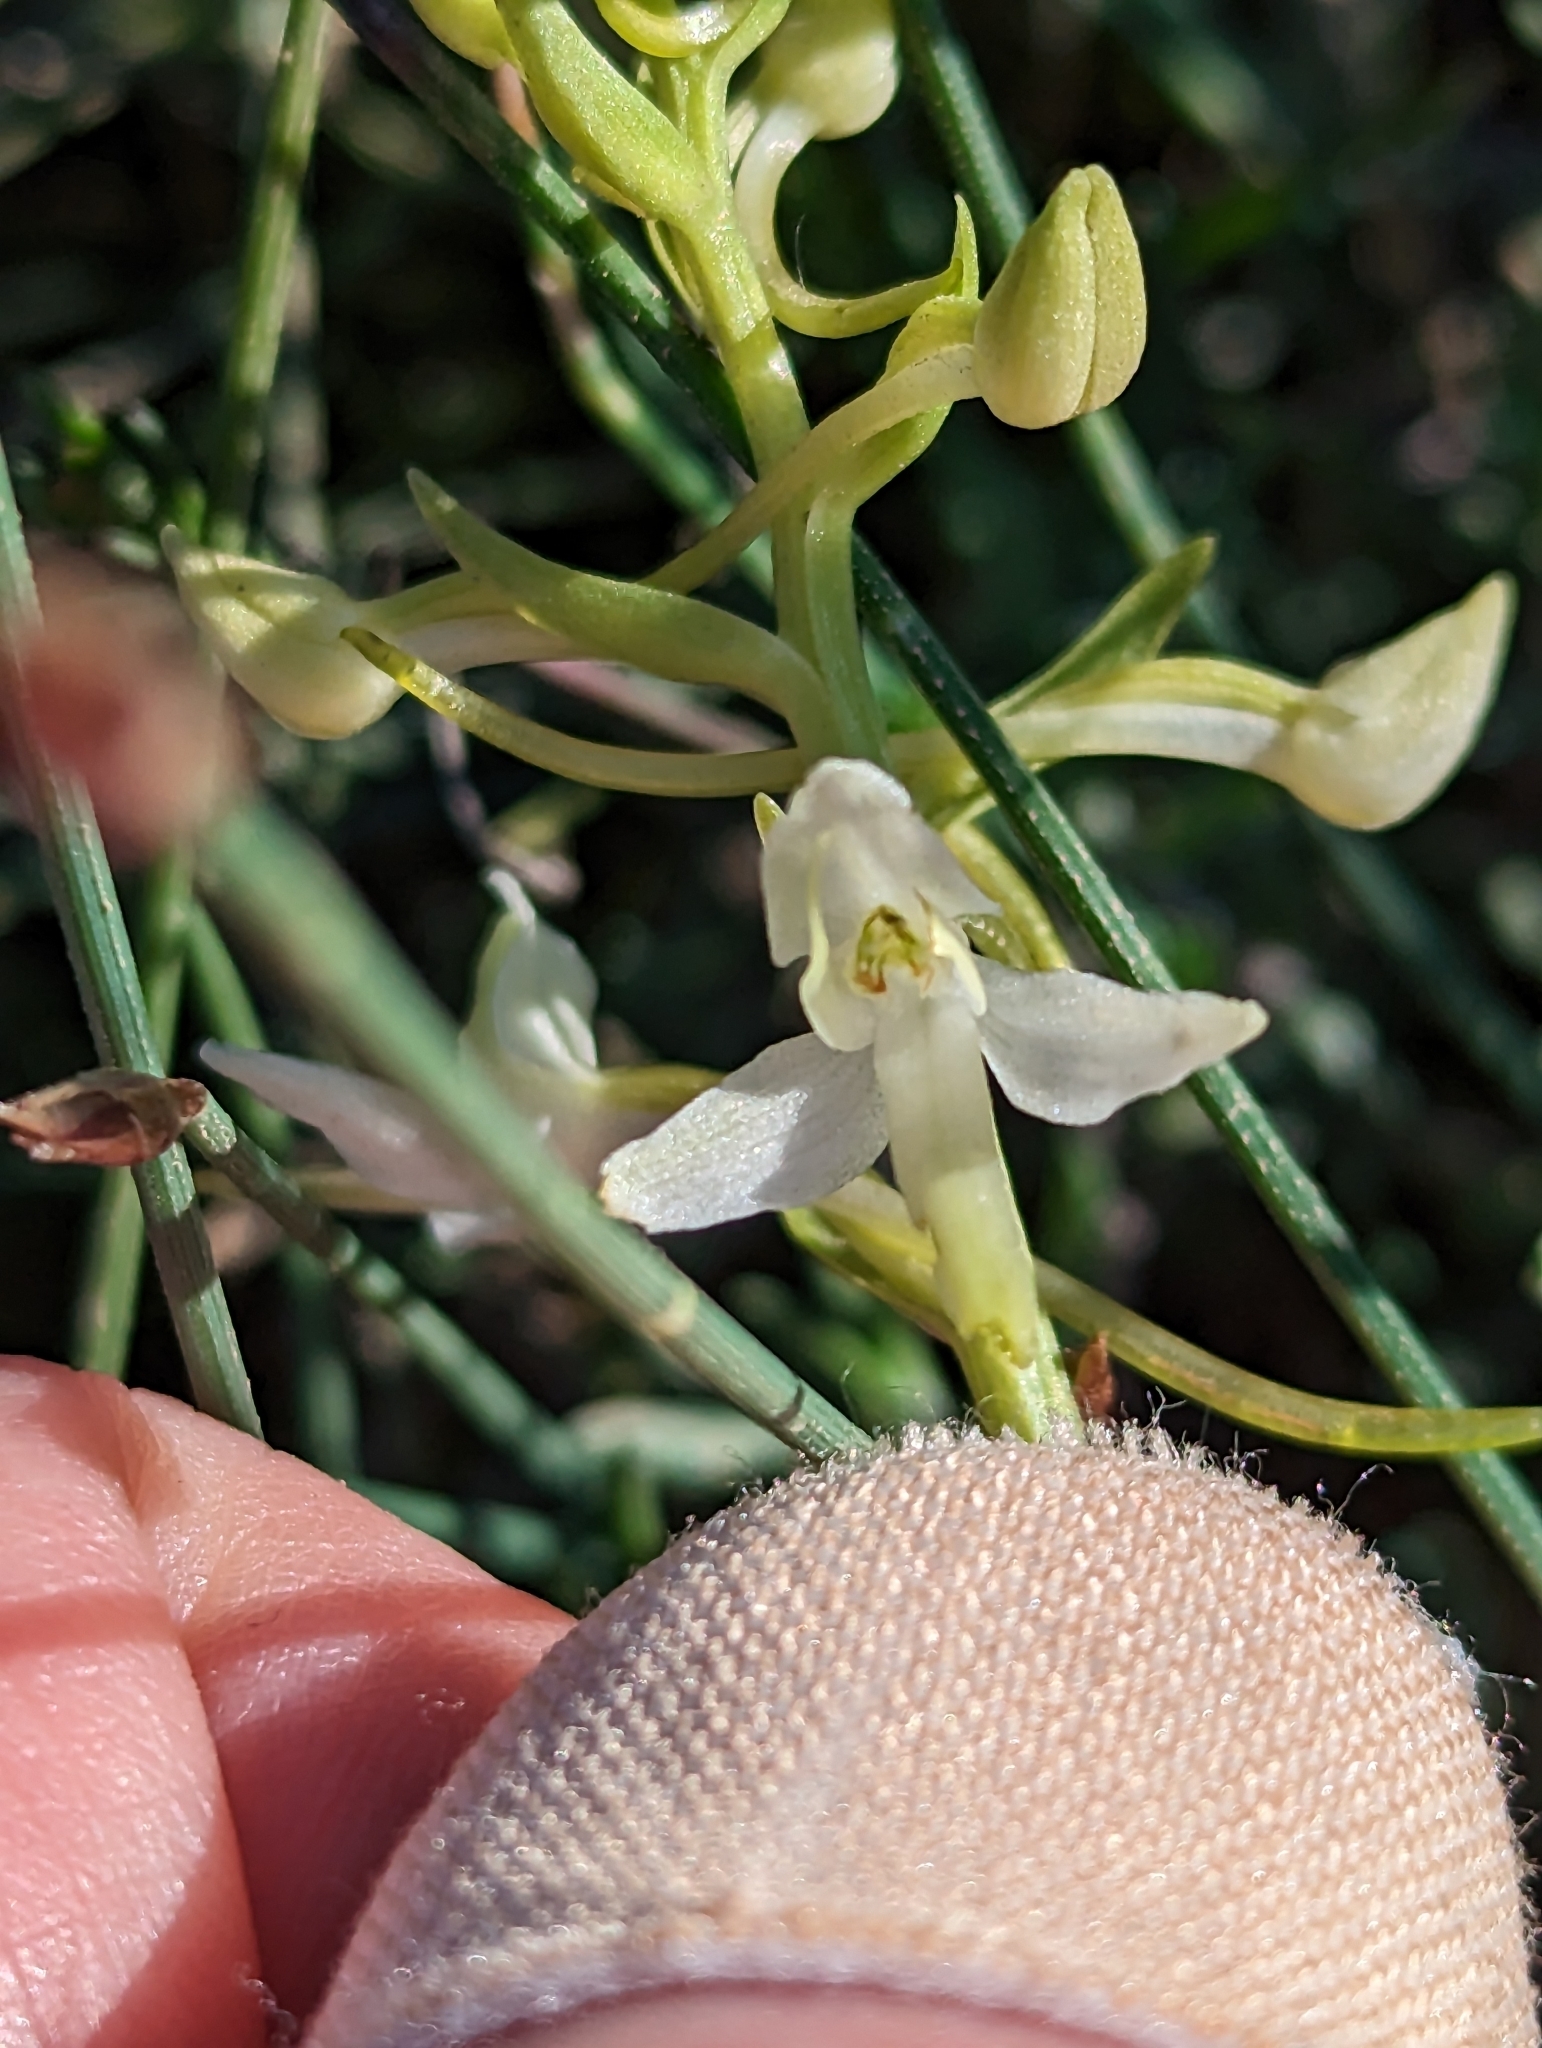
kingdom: Plantae
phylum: Tracheophyta
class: Liliopsida
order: Asparagales
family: Orchidaceae
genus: Platanthera
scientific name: Platanthera bifolia
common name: Lesser butterfly-orchid
